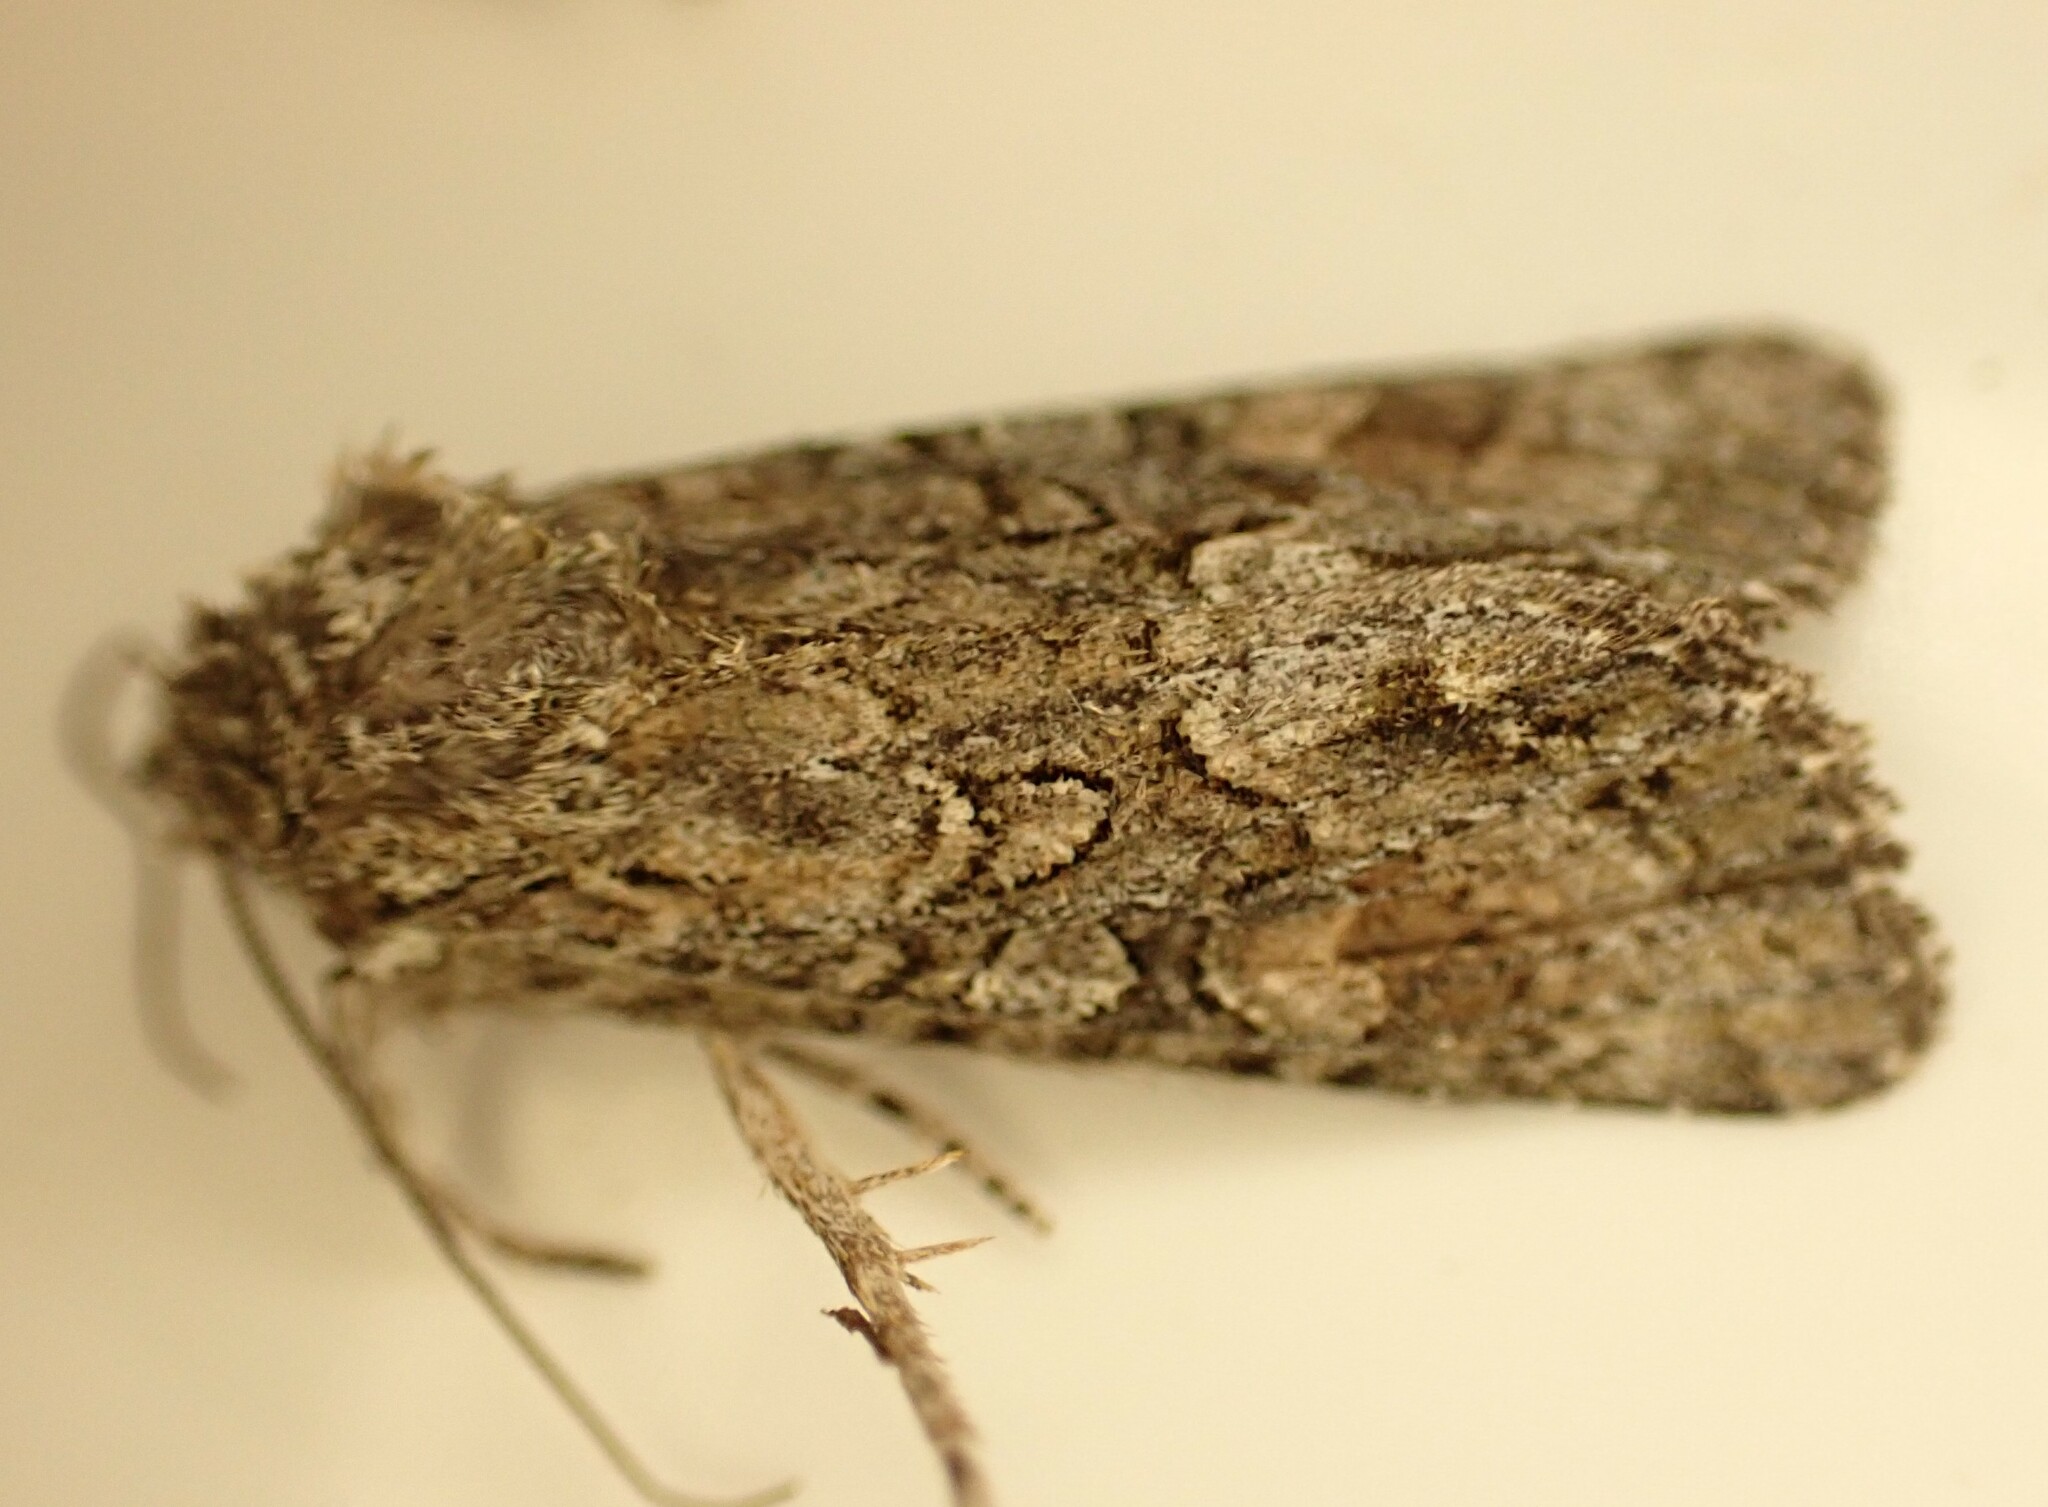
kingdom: Animalia
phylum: Arthropoda
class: Insecta
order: Lepidoptera
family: Noctuidae
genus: Ichneutica
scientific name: Ichneutica mutans
